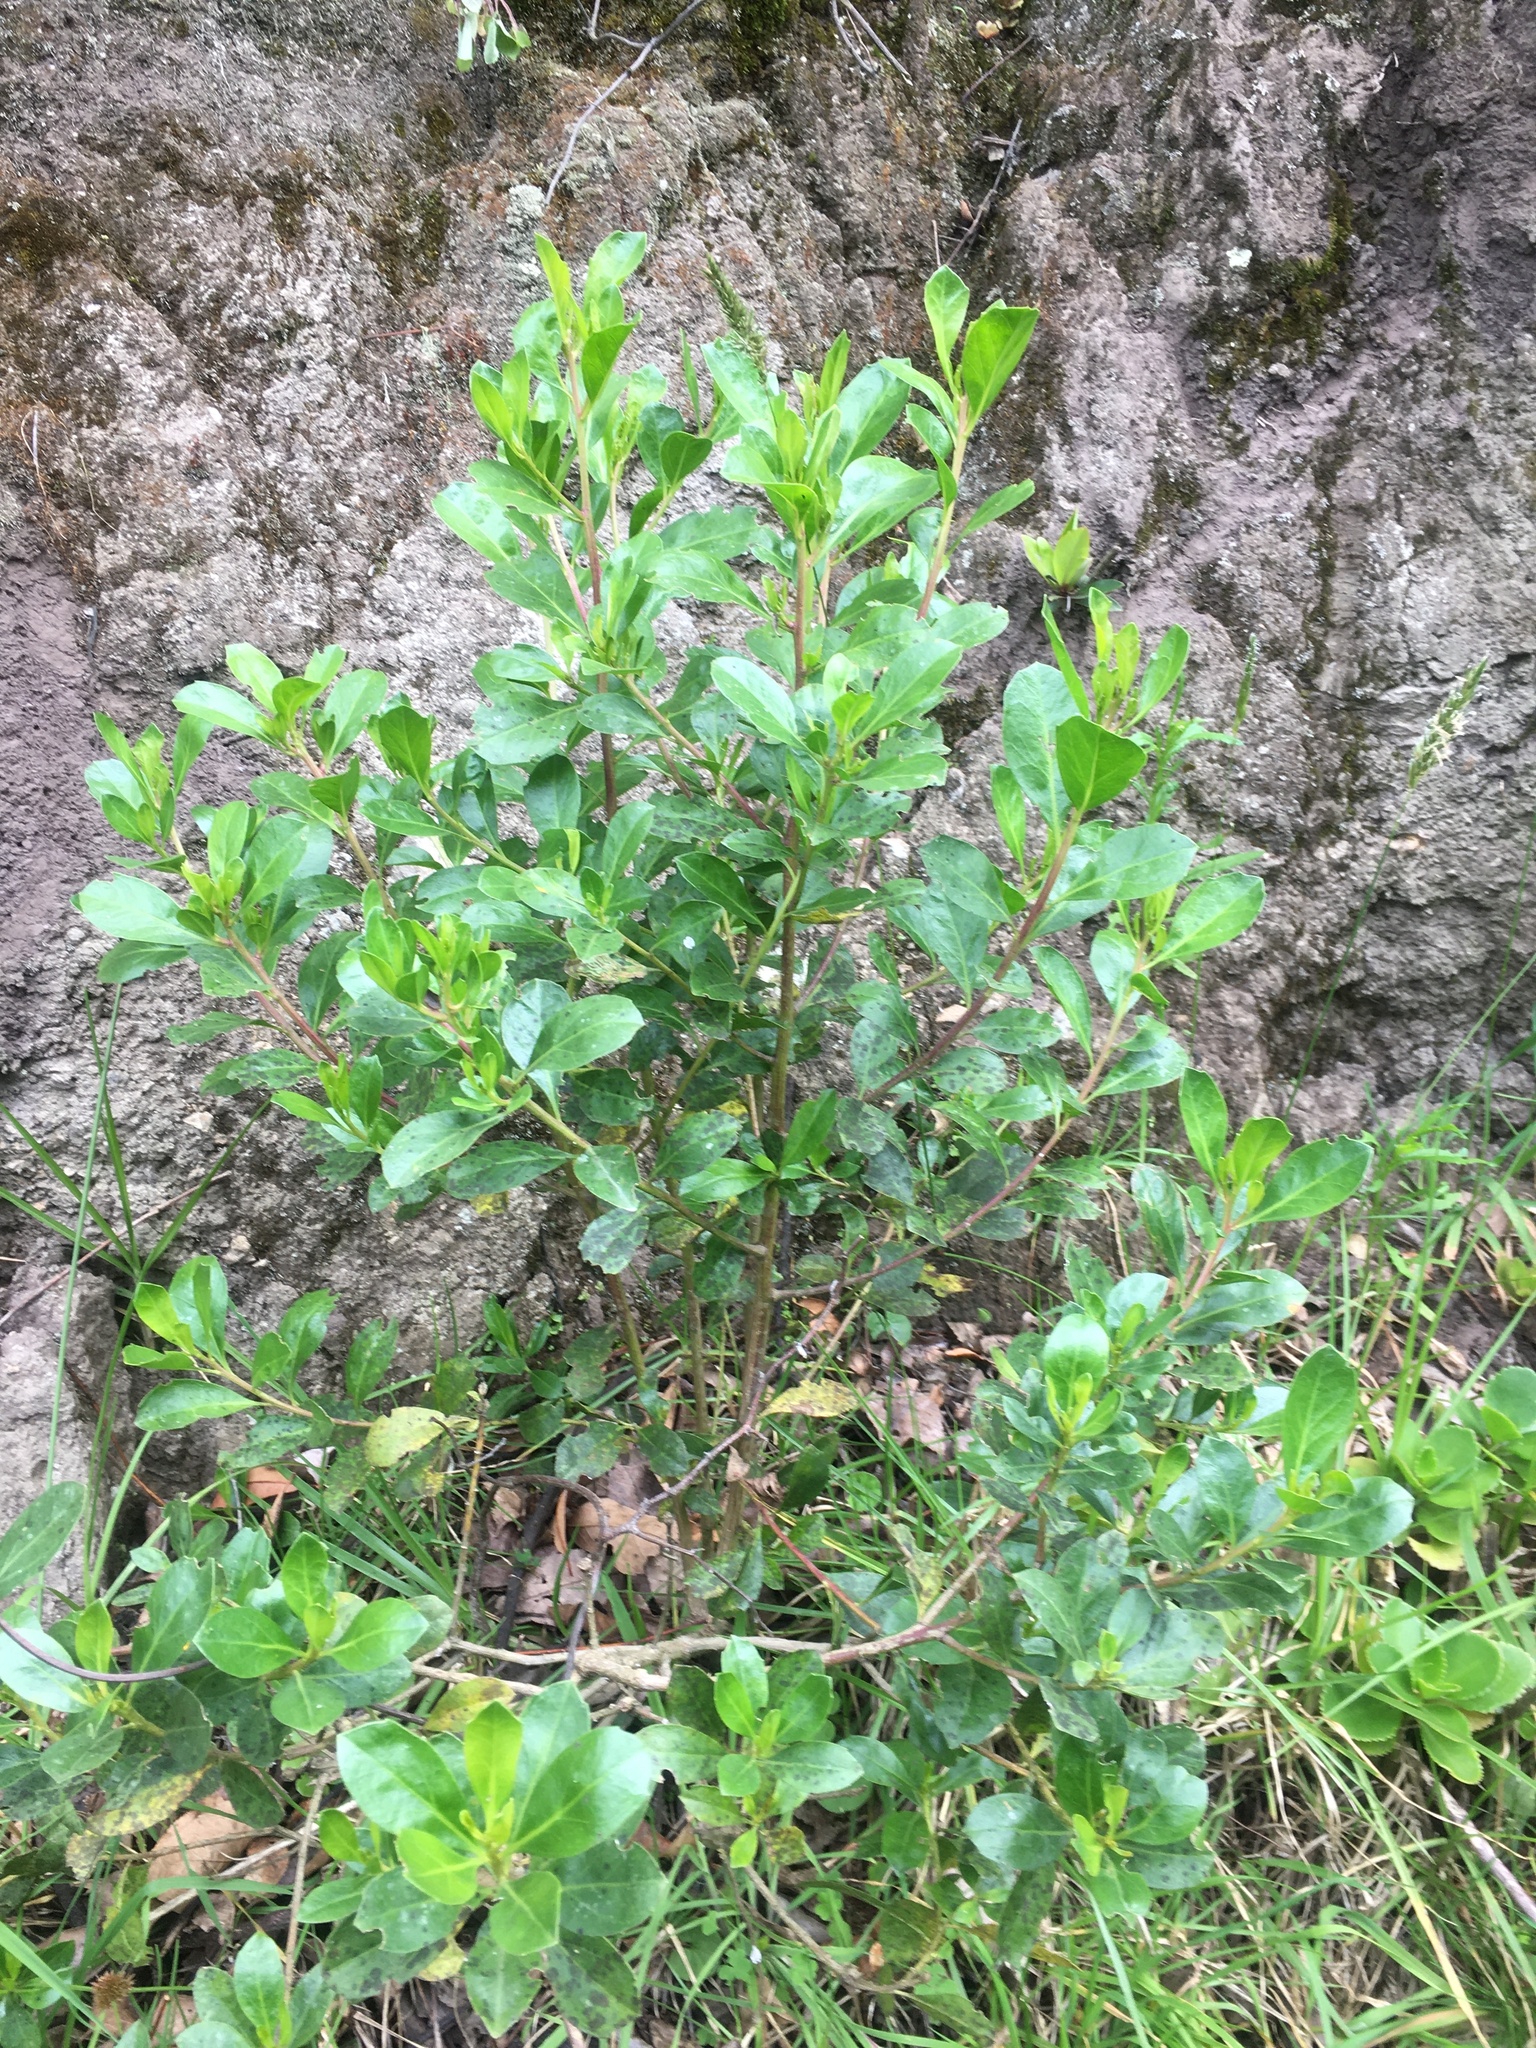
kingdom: Plantae
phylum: Tracheophyta
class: Magnoliopsida
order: Asterales
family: Asteraceae
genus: Baccharis
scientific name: Baccharis macrantha
